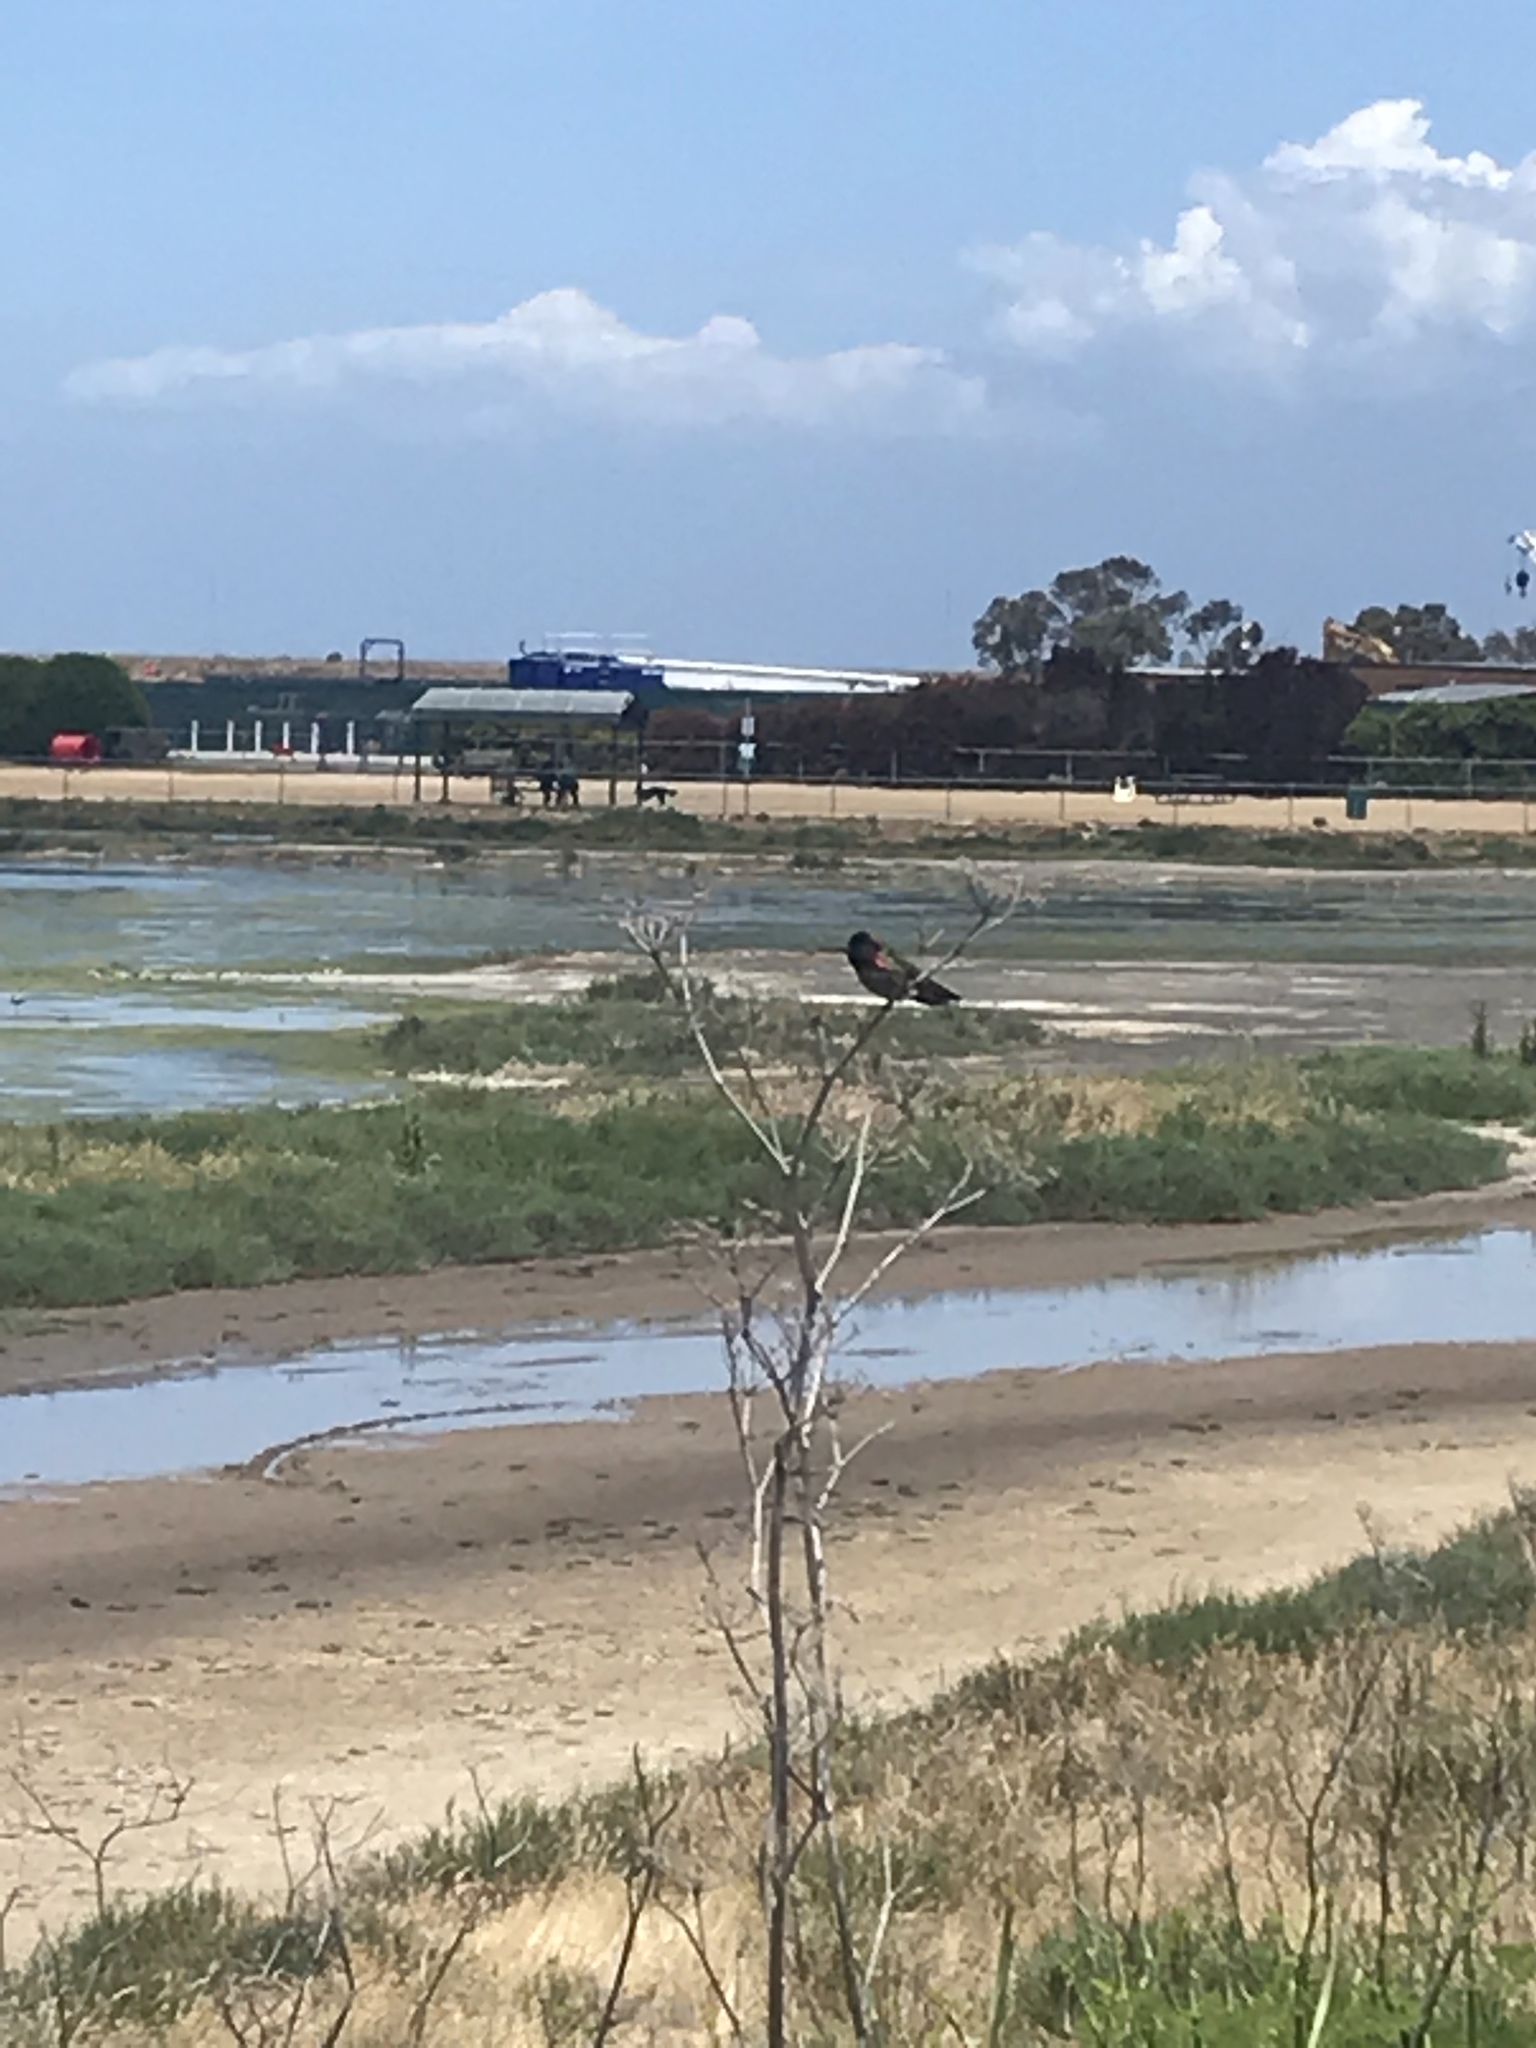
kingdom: Animalia
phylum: Chordata
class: Aves
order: Apodiformes
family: Trochilidae
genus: Calypte
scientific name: Calypte anna
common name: Anna's hummingbird
